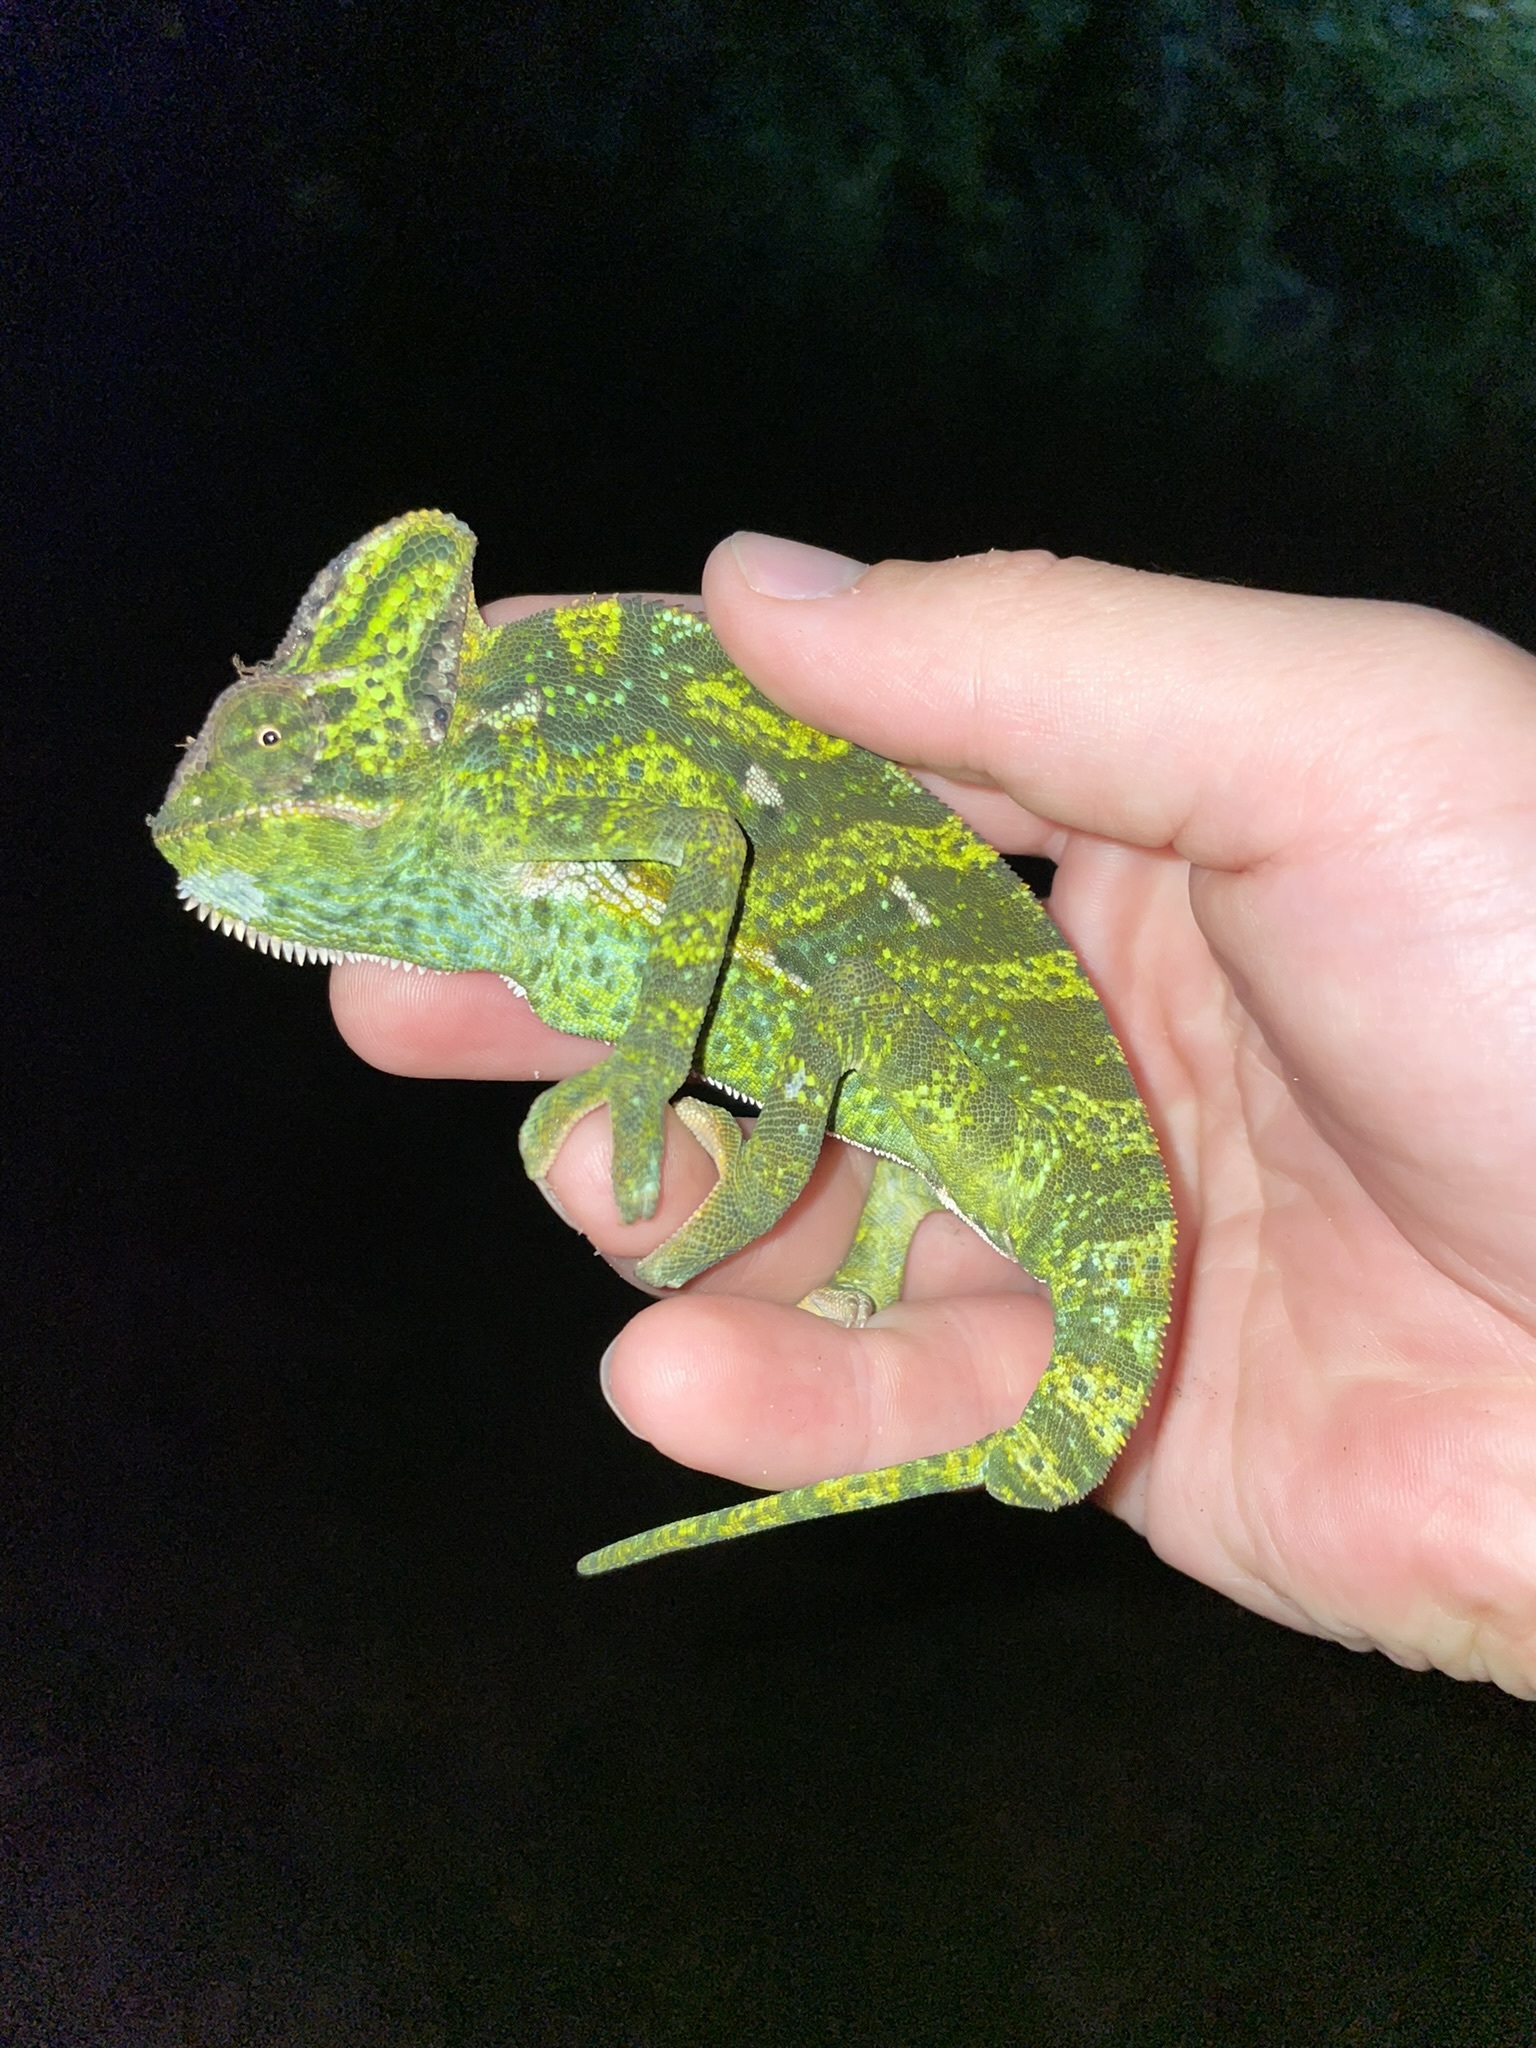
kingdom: Animalia
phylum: Chordata
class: Squamata
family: Chamaeleonidae
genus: Chamaeleo
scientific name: Chamaeleo calyptratus
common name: Veiled chameleon
